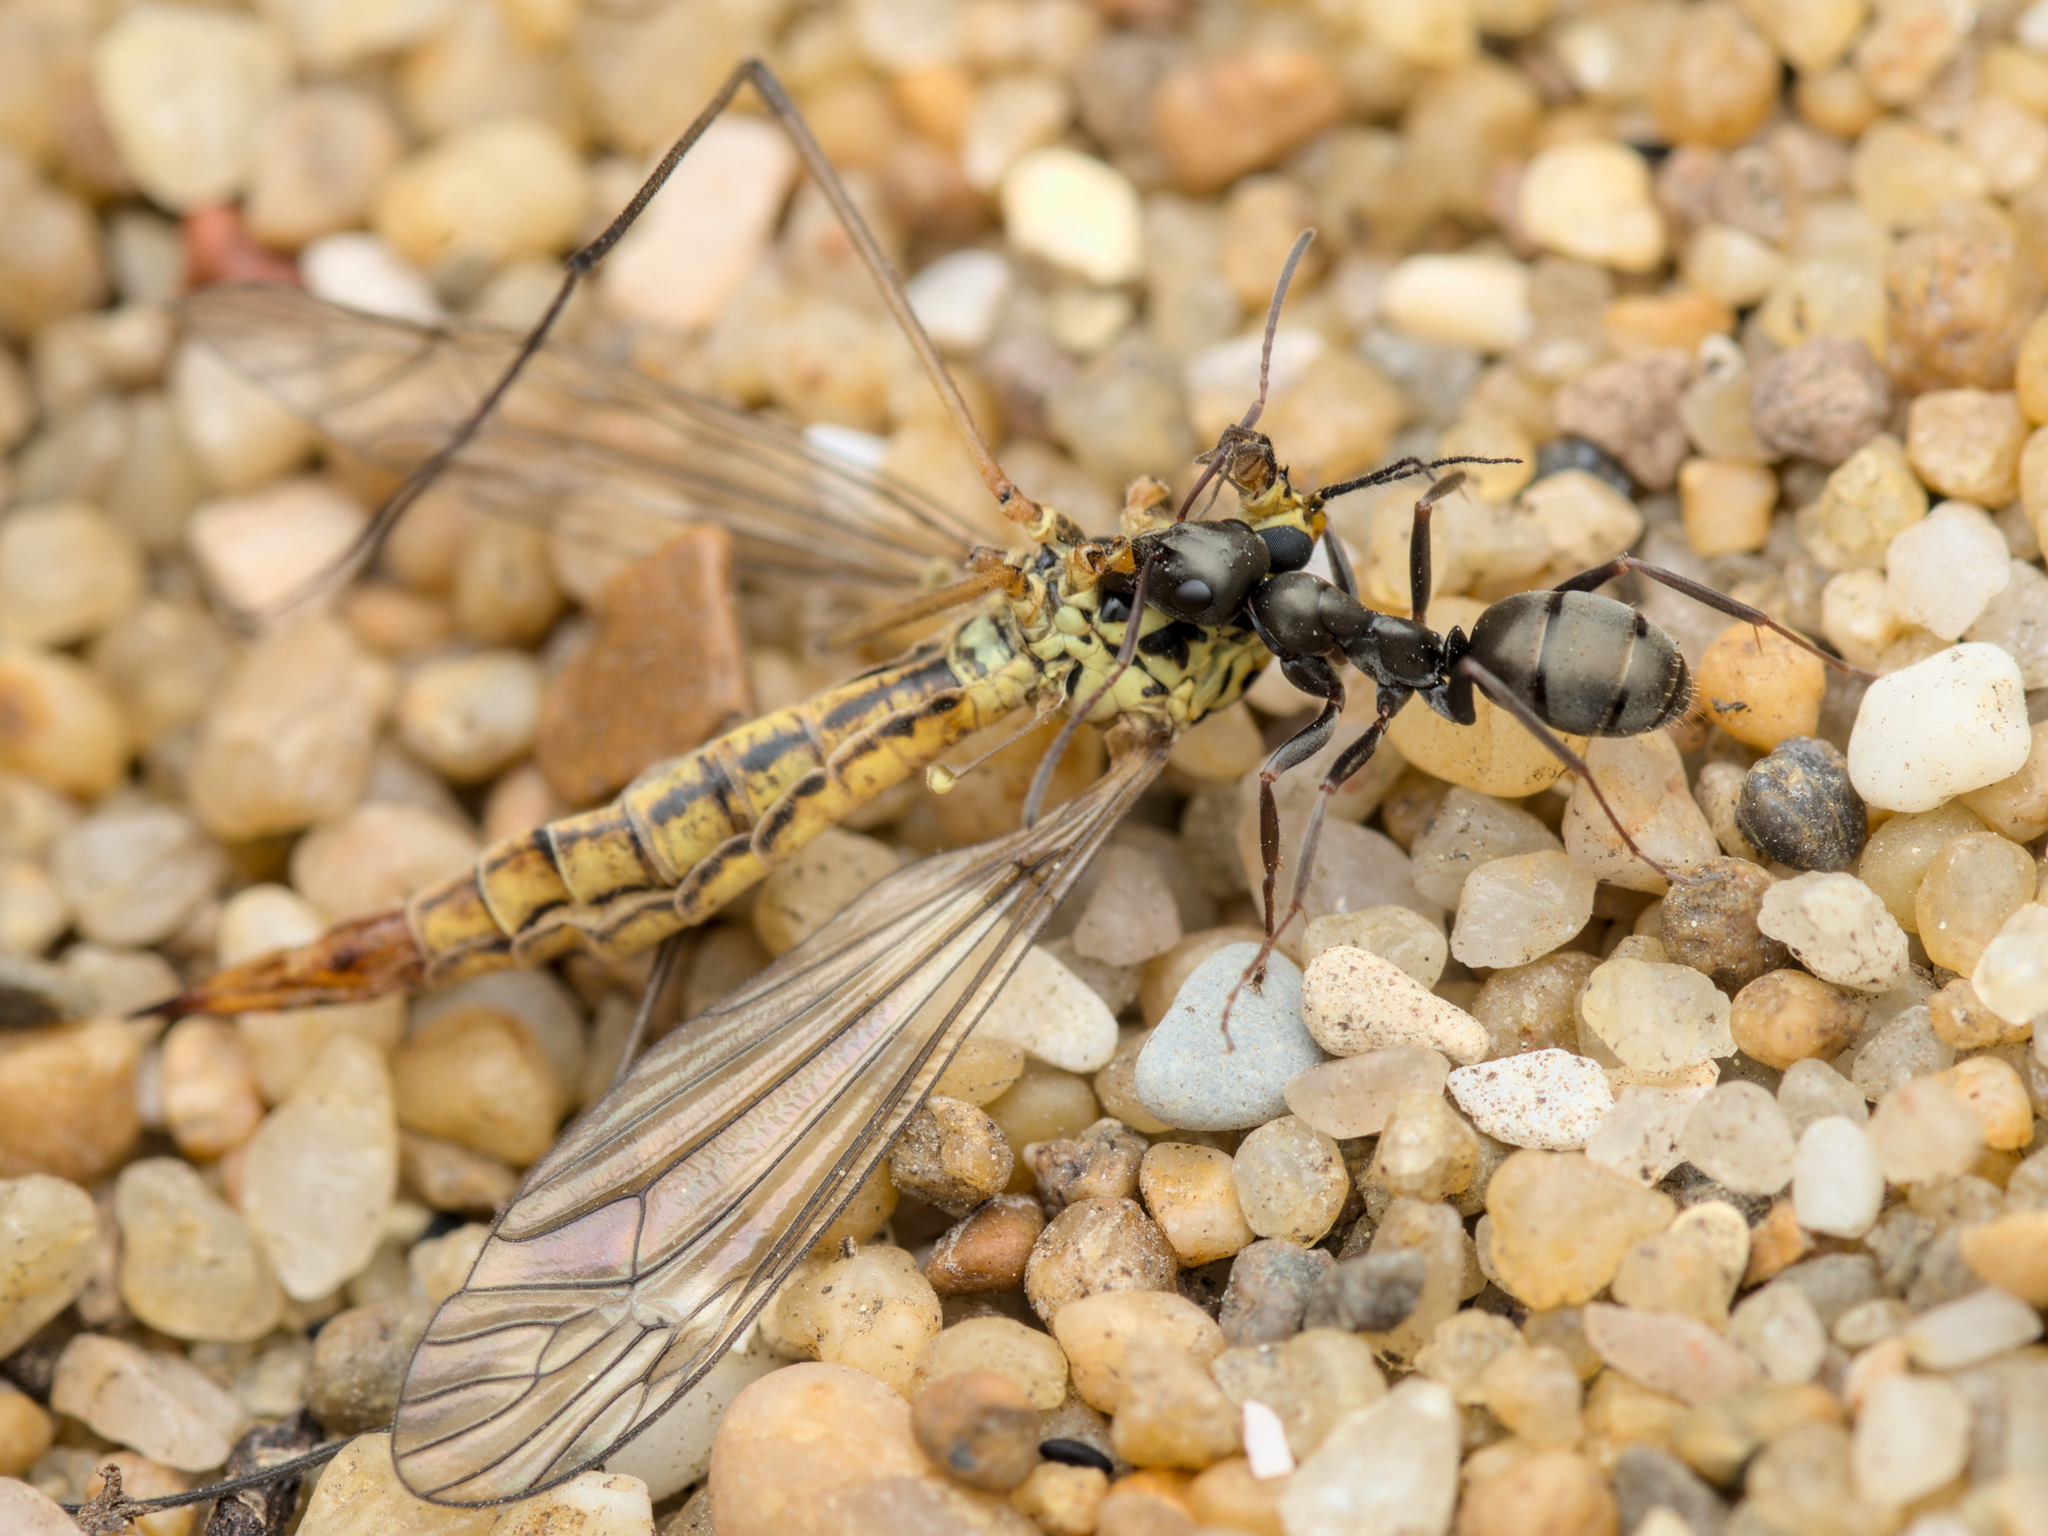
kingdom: Animalia
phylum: Arthropoda
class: Insecta
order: Hymenoptera
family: Formicidae
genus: Formica
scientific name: Formica fusca
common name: Silky ant
